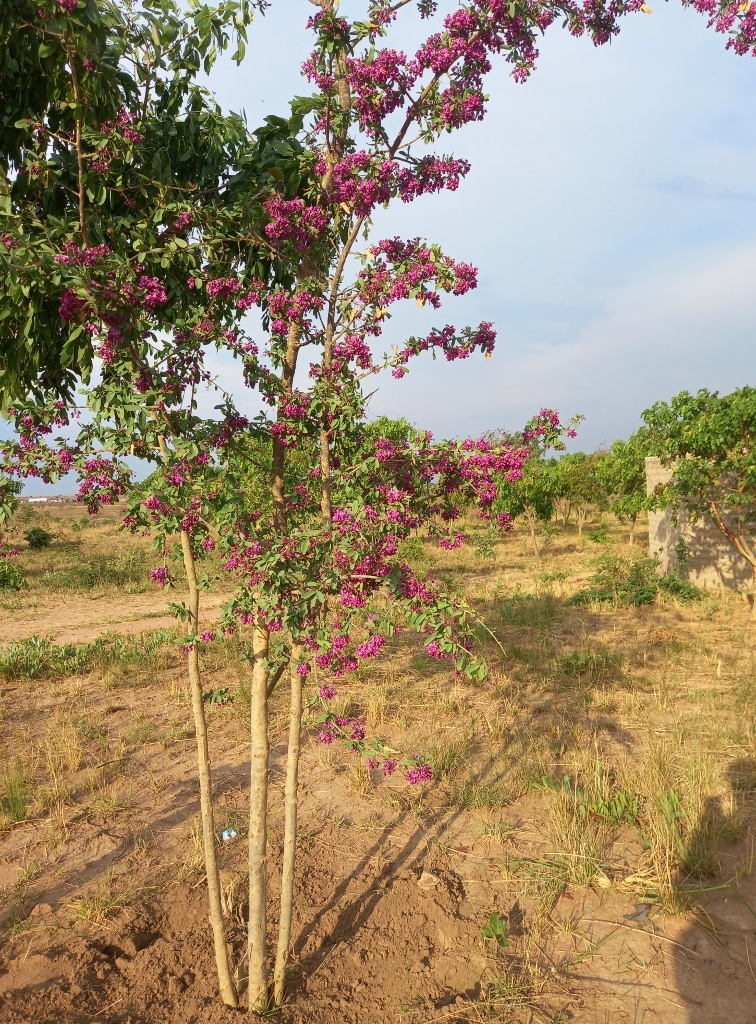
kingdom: Plantae
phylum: Tracheophyta
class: Magnoliopsida
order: Fabales
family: Polygalaceae
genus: Securidaca
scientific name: Securidaca longepedunculata
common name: Violet tree
